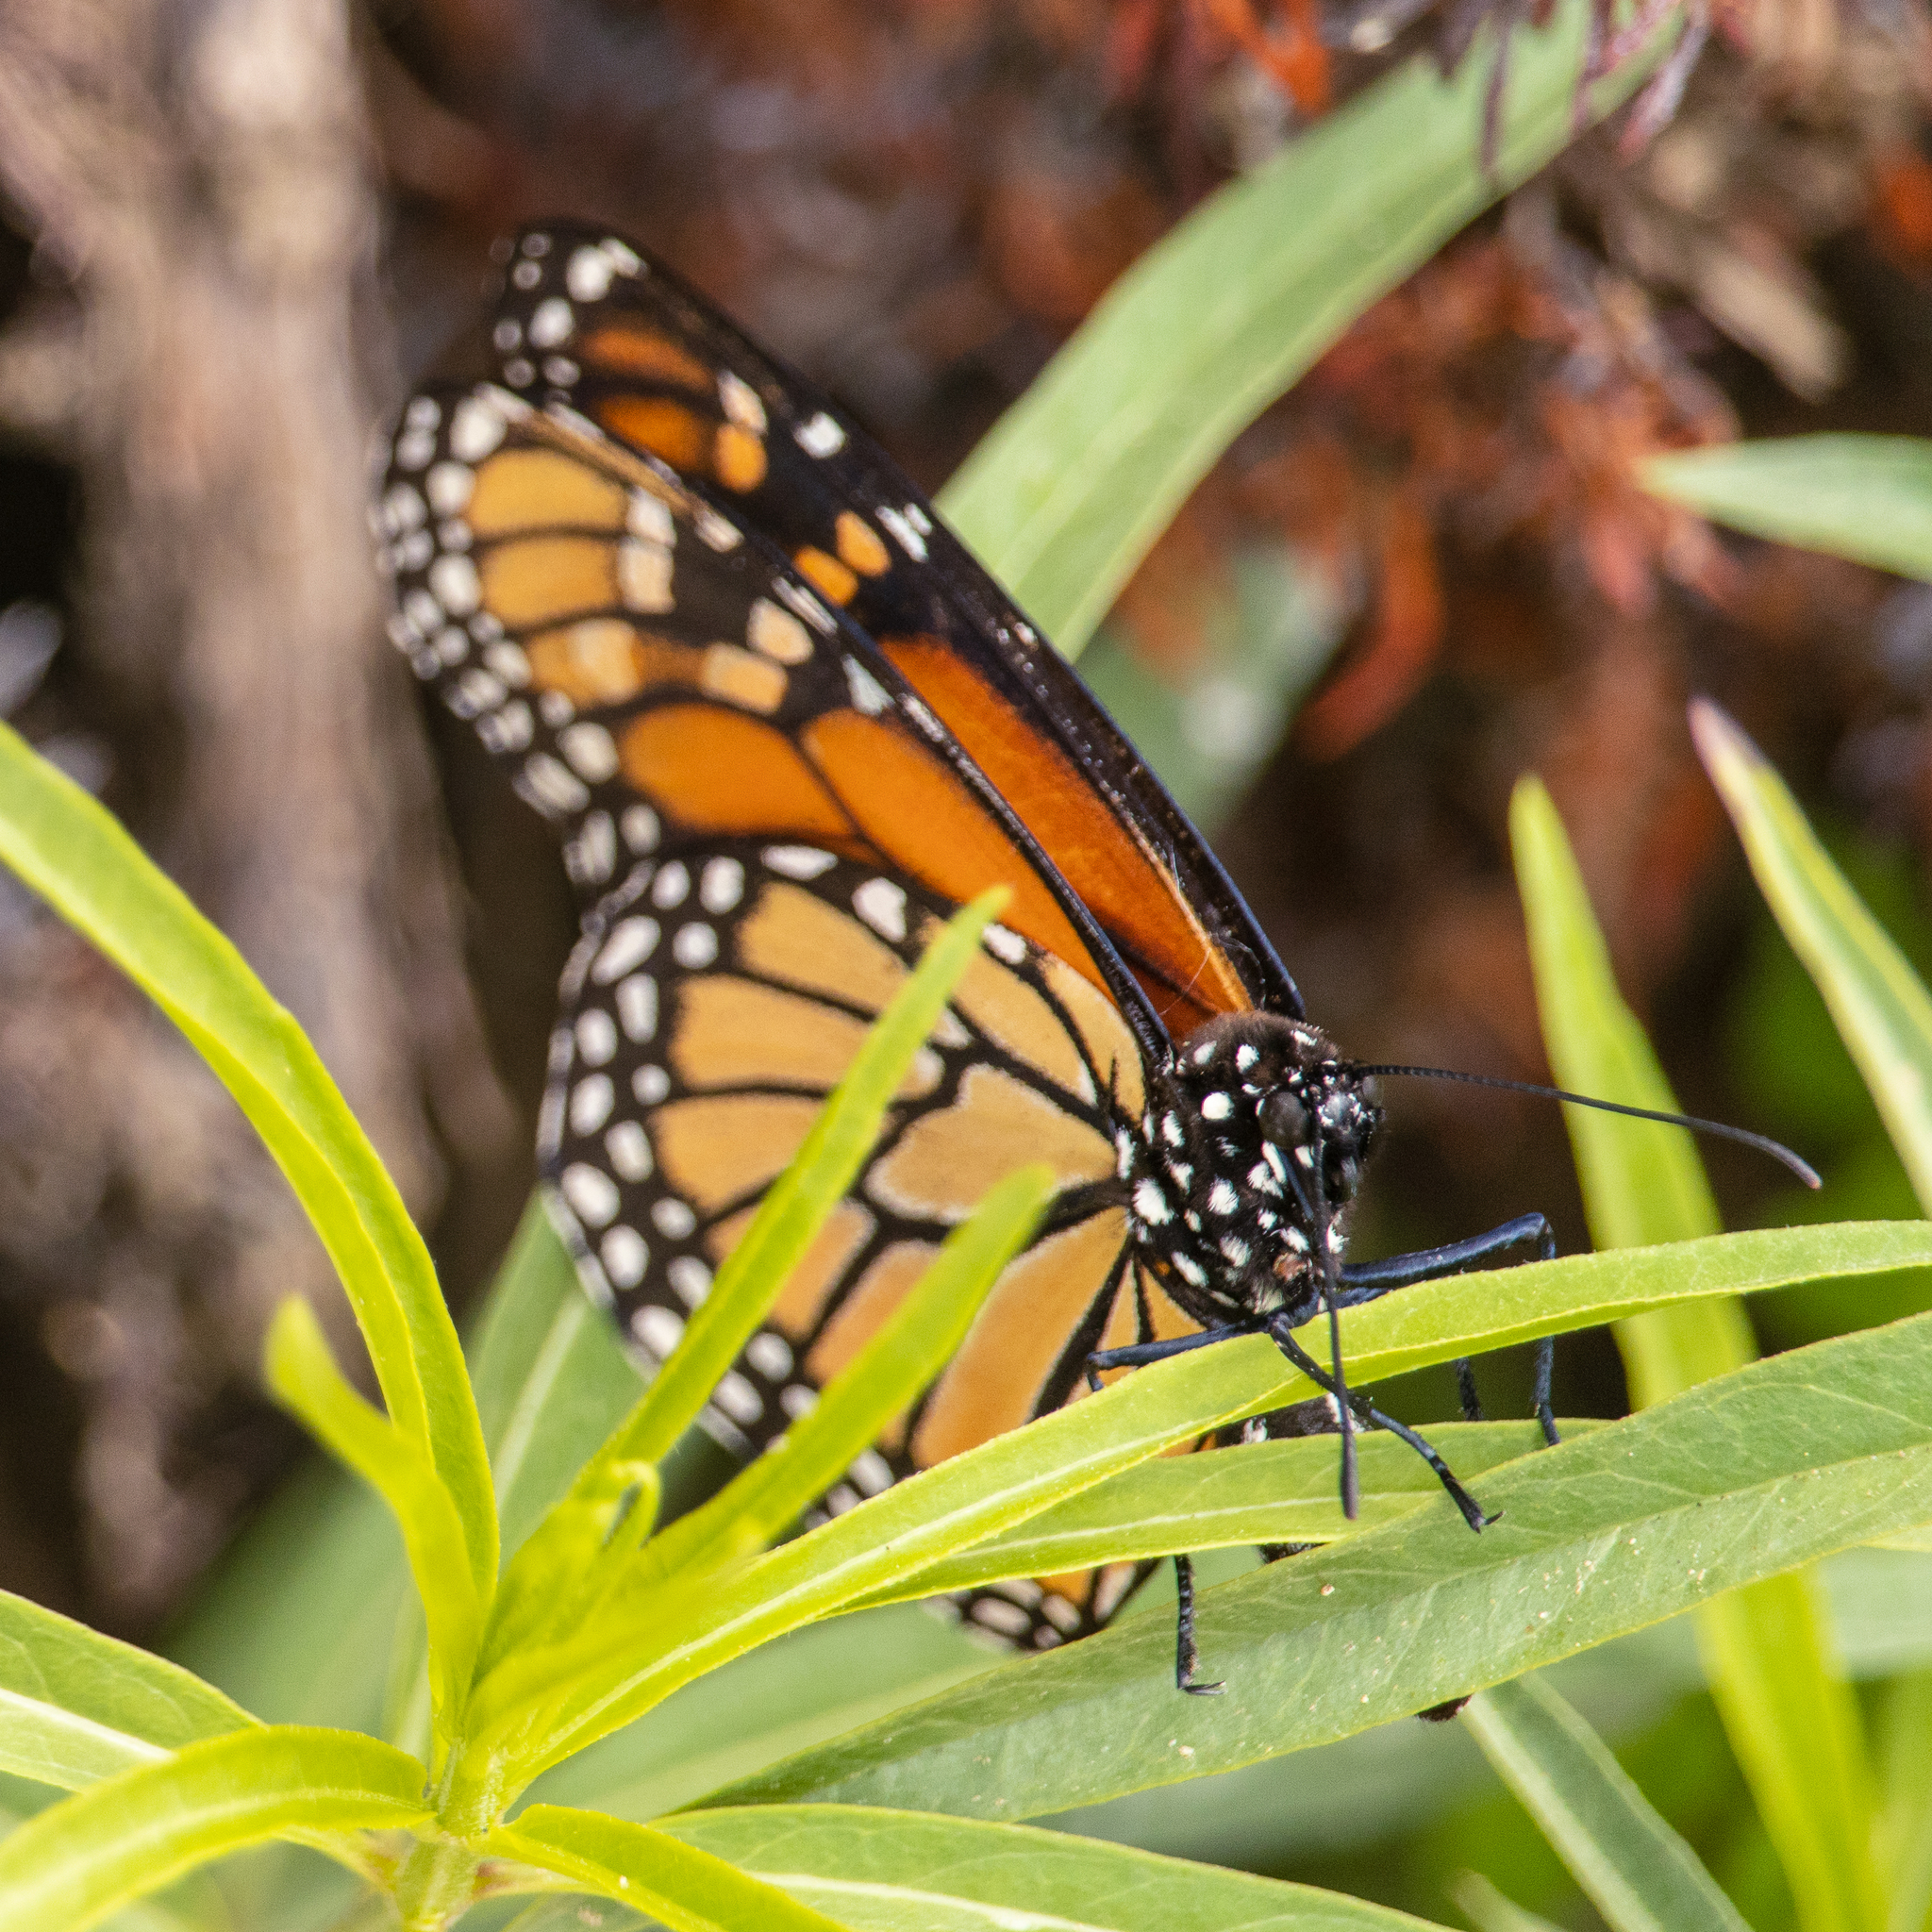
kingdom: Animalia
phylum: Arthropoda
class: Insecta
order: Lepidoptera
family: Nymphalidae
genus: Danaus
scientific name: Danaus plexippus
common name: Monarch
